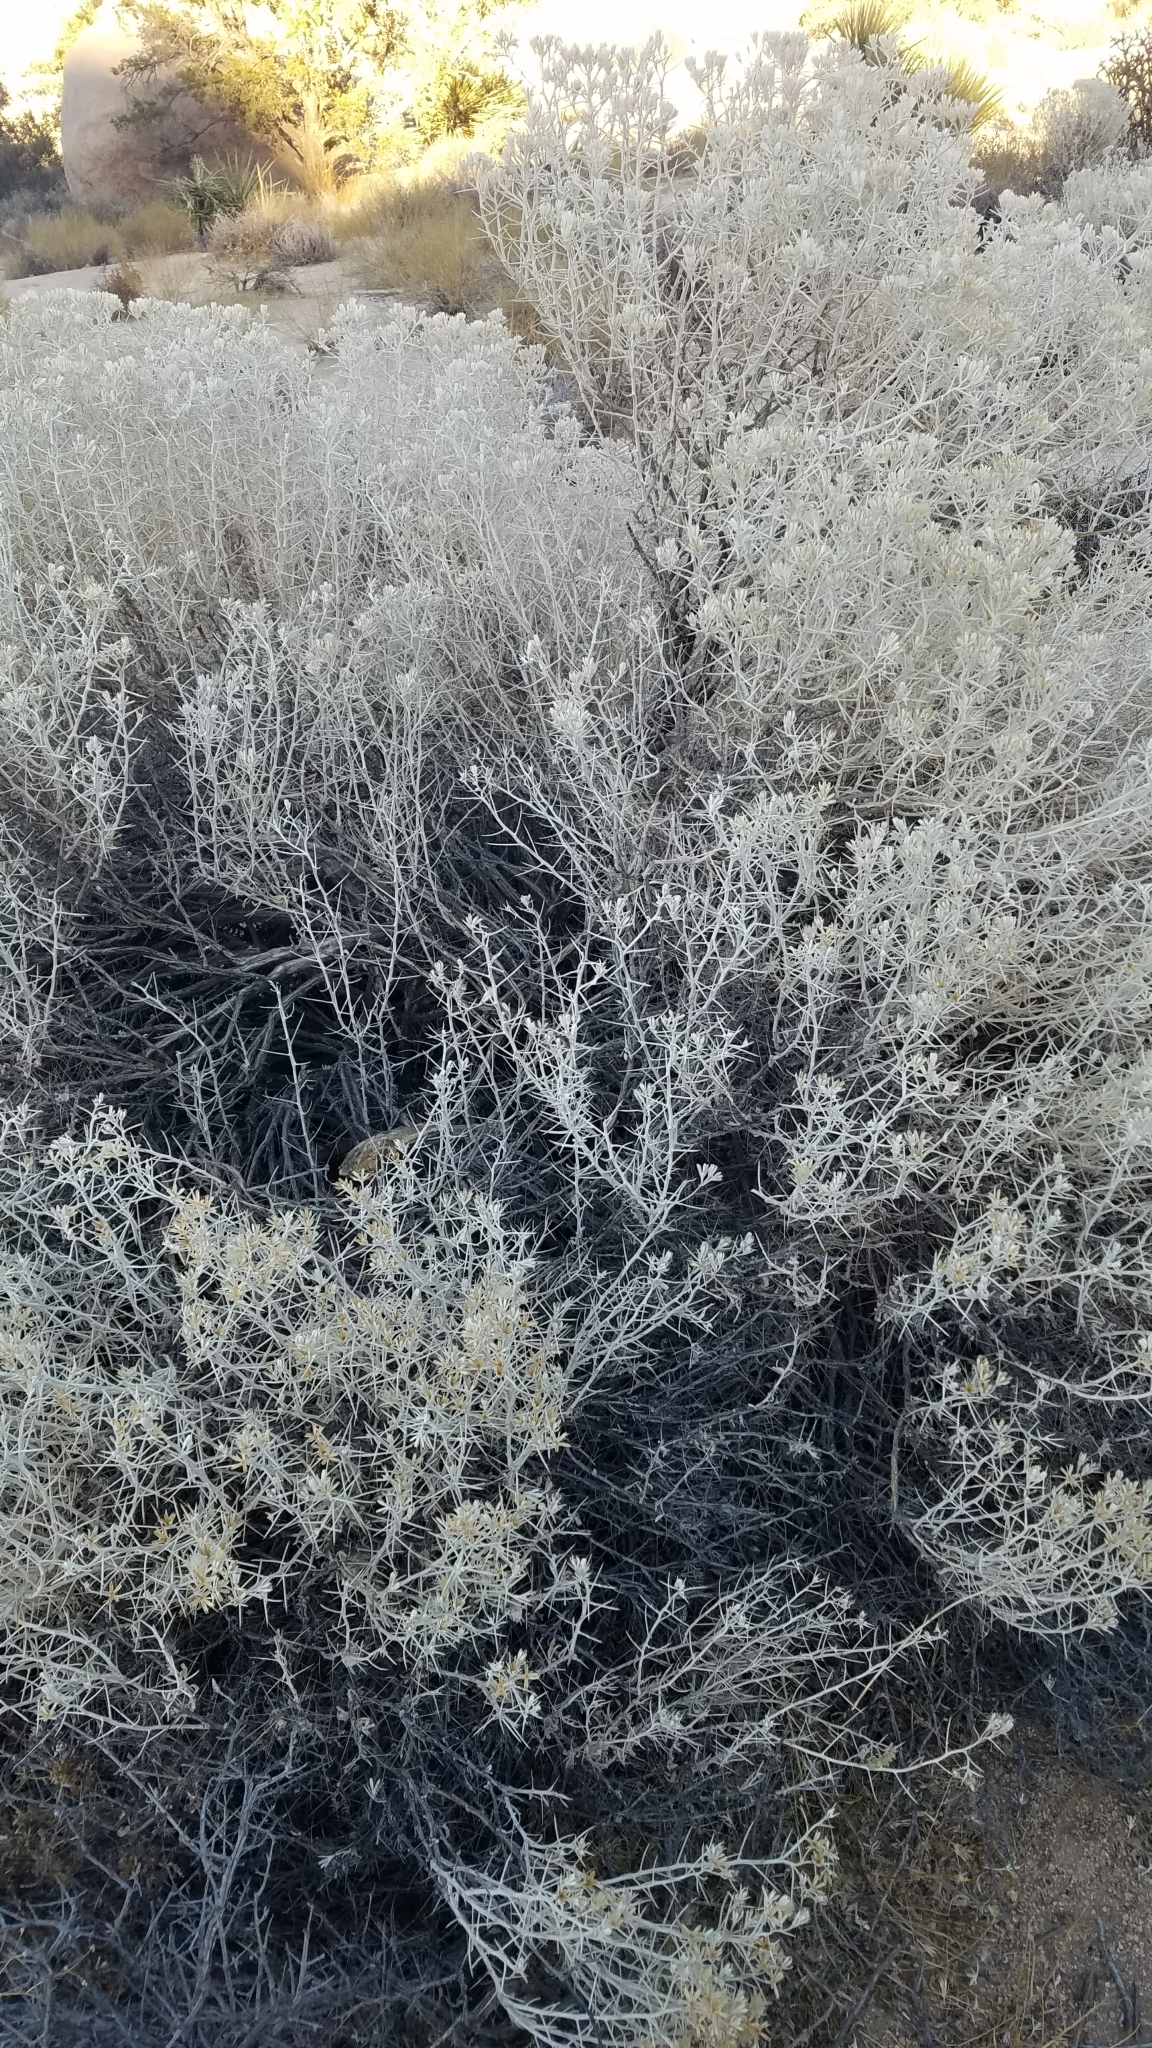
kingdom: Plantae
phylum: Tracheophyta
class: Magnoliopsida
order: Asterales
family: Asteraceae
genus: Tetradymia
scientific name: Tetradymia stenolepis
